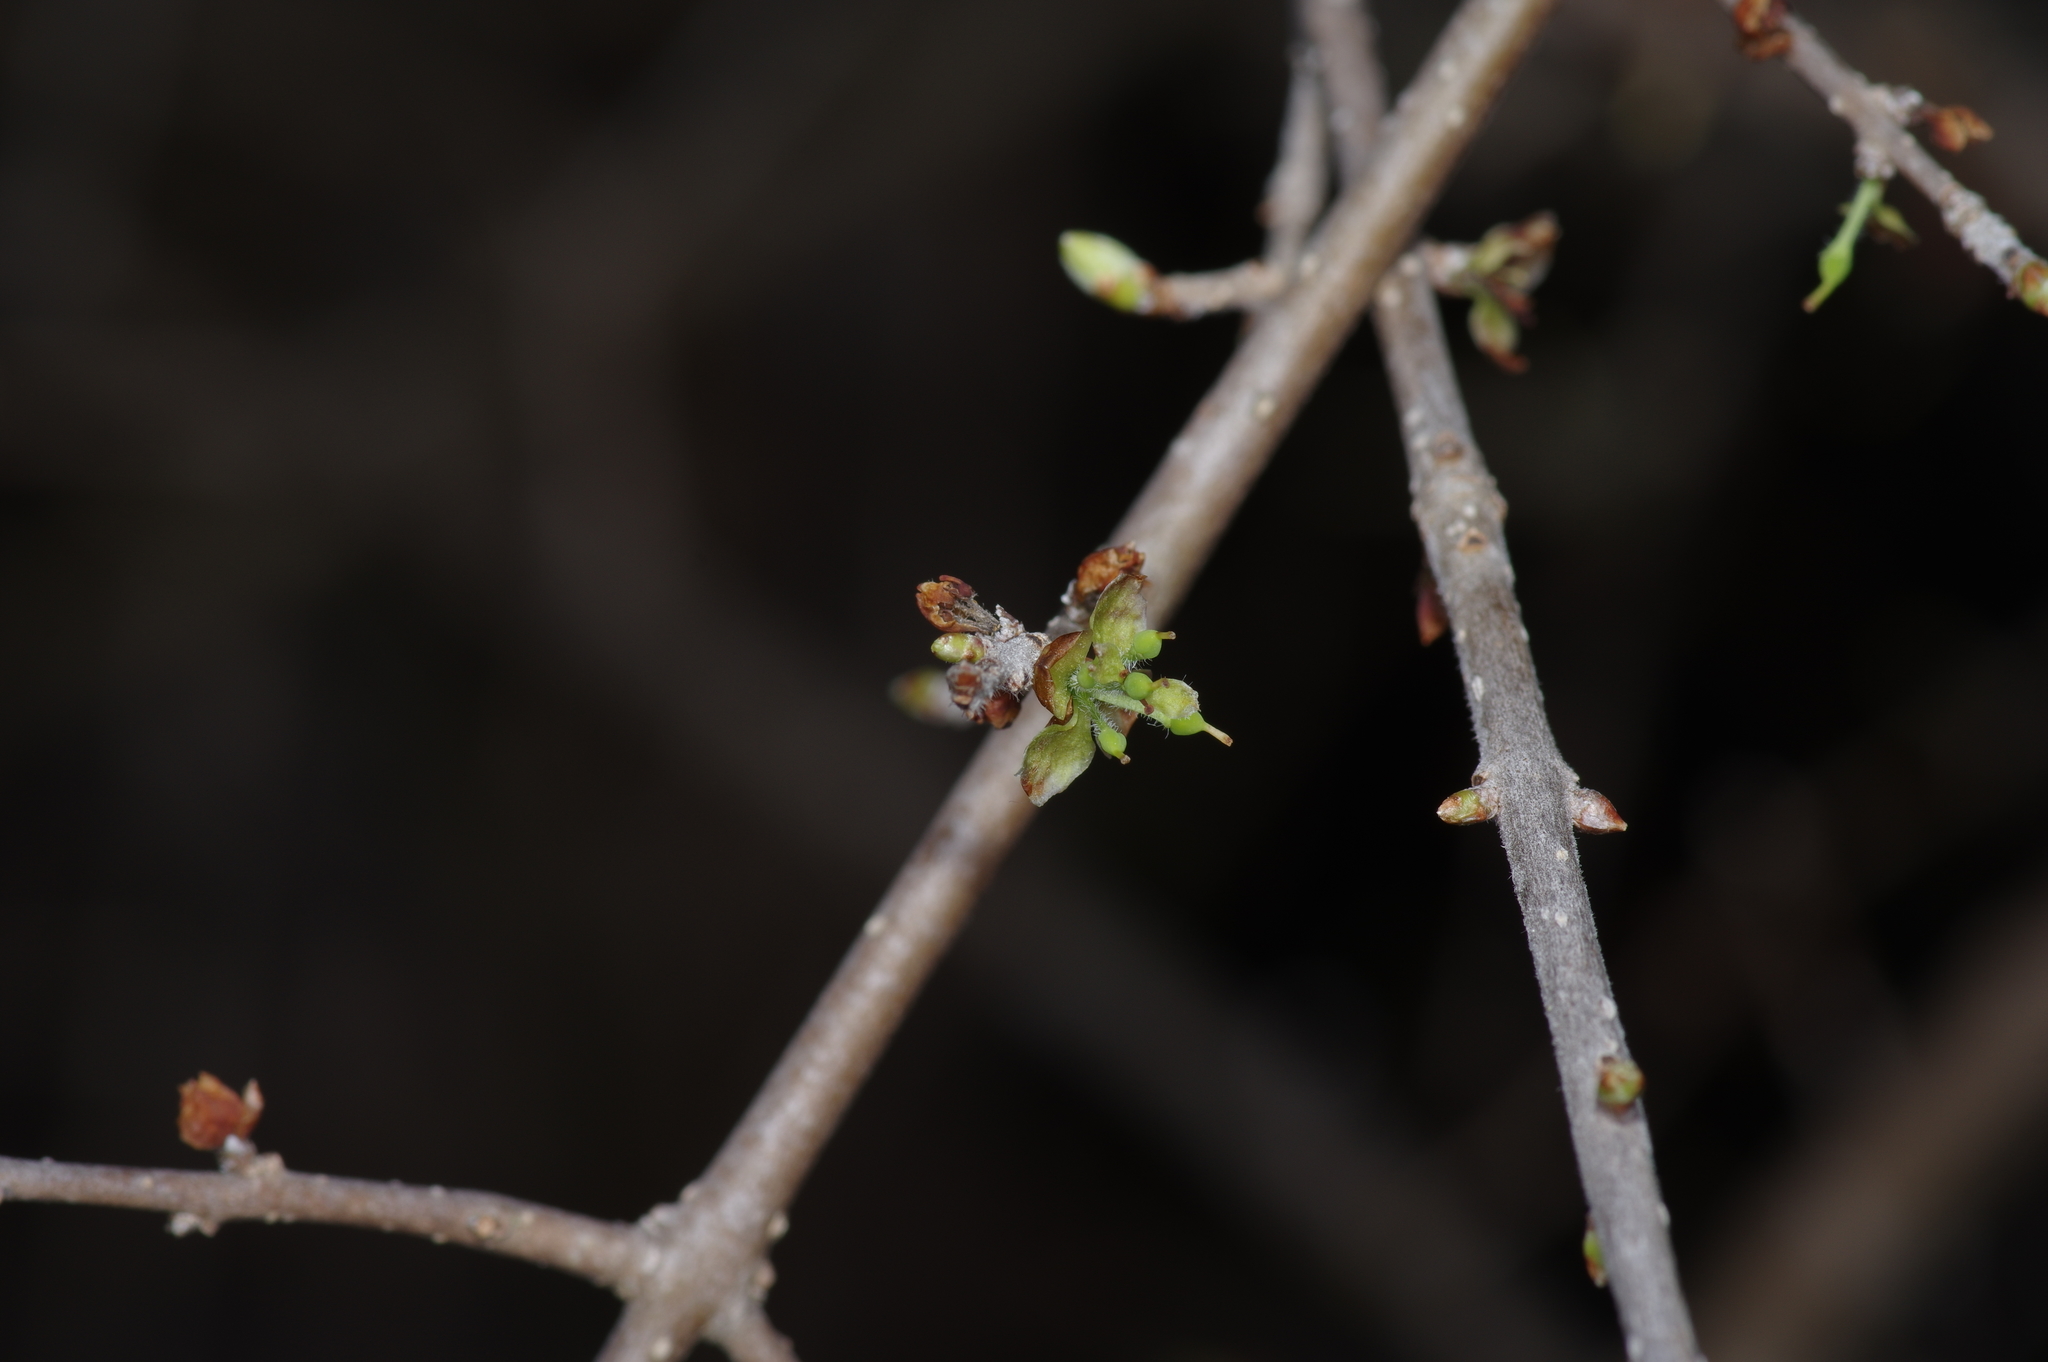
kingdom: Plantae
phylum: Tracheophyta
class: Magnoliopsida
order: Lamiales
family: Oleaceae
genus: Forestiera
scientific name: Forestiera pubescens
